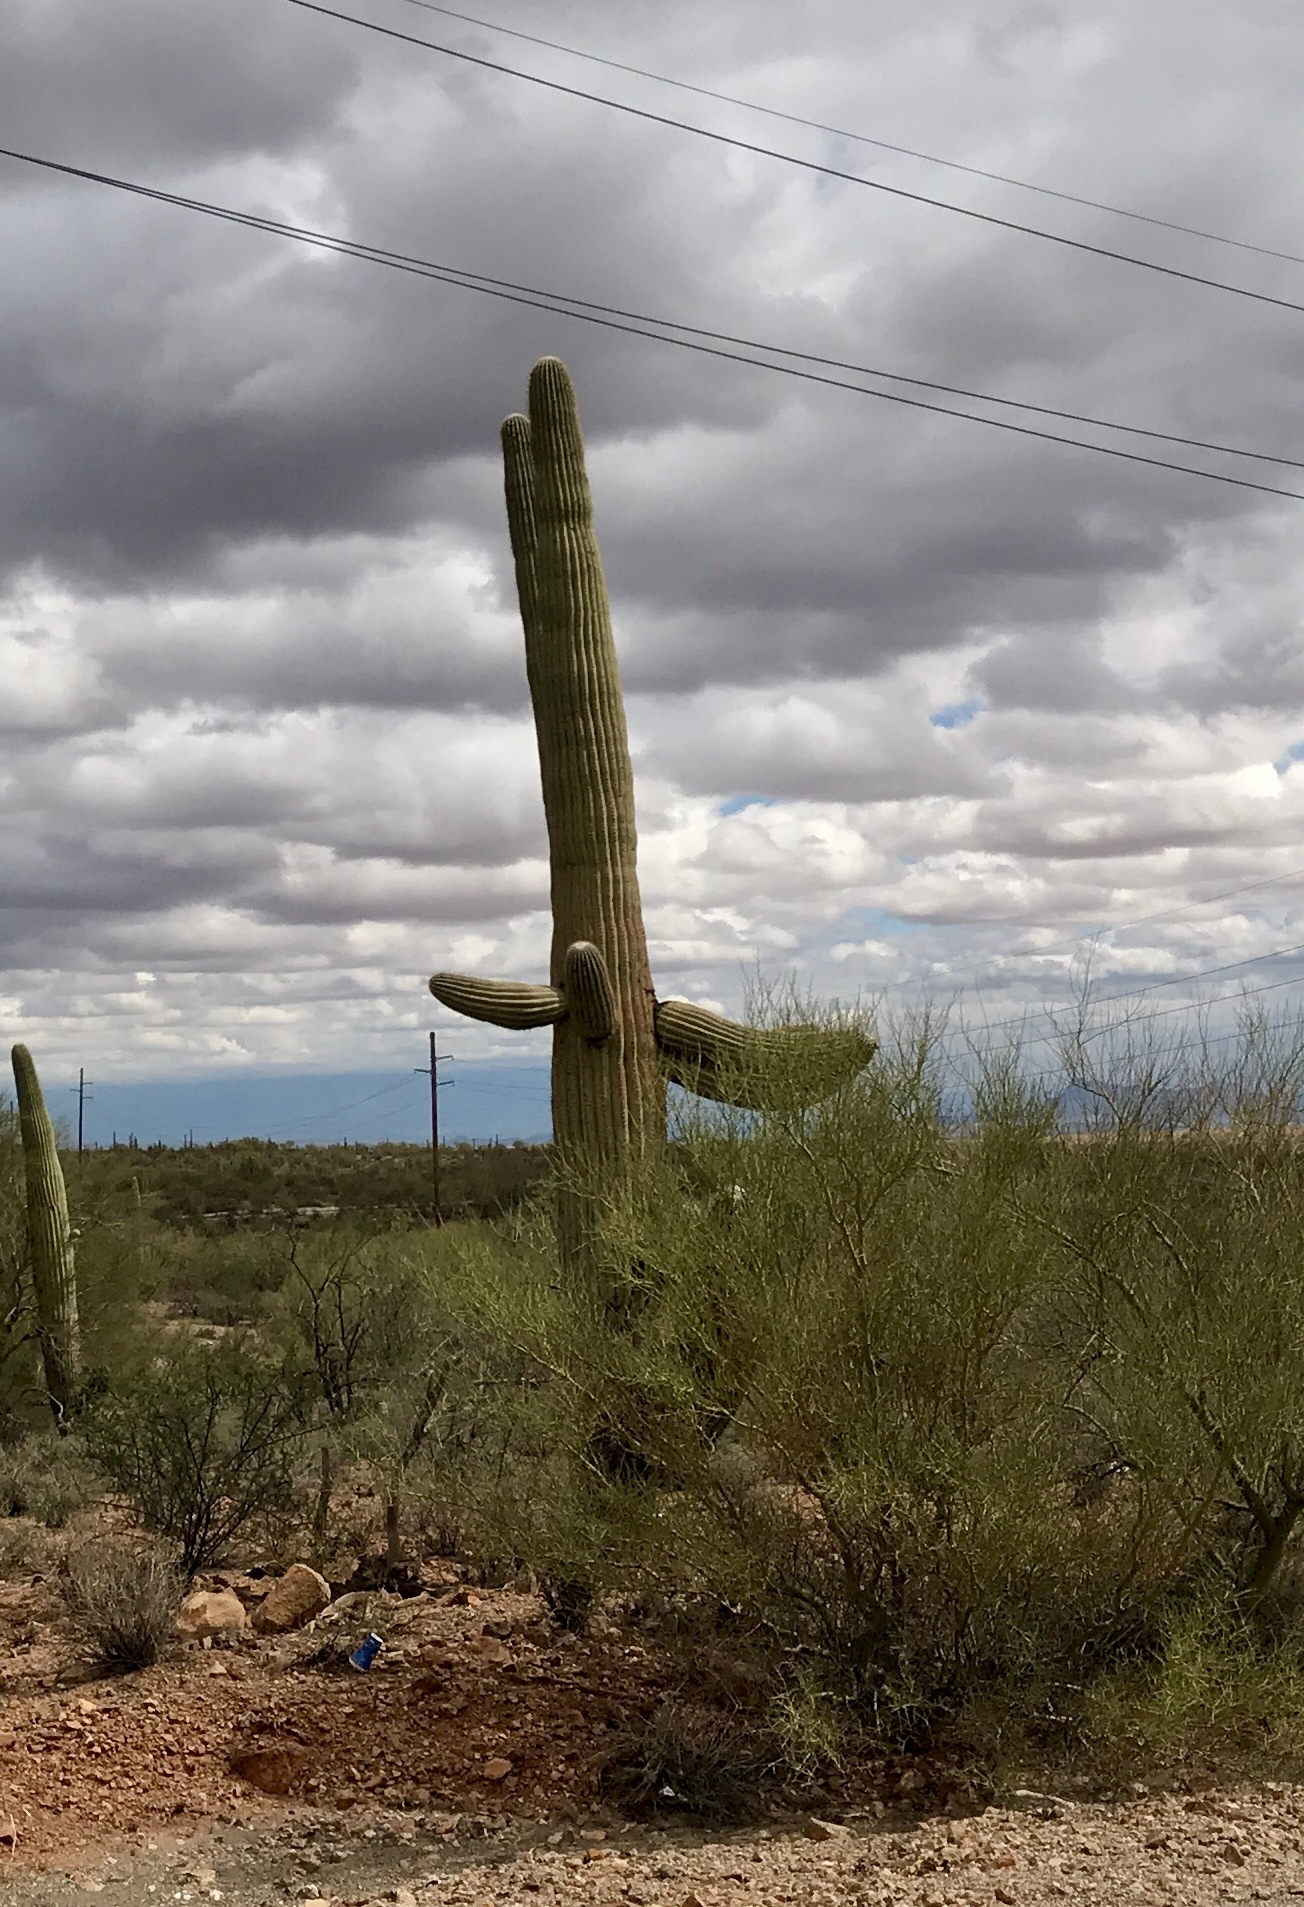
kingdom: Plantae
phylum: Tracheophyta
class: Magnoliopsida
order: Caryophyllales
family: Cactaceae
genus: Carnegiea
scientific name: Carnegiea gigantea
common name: Saguaro
